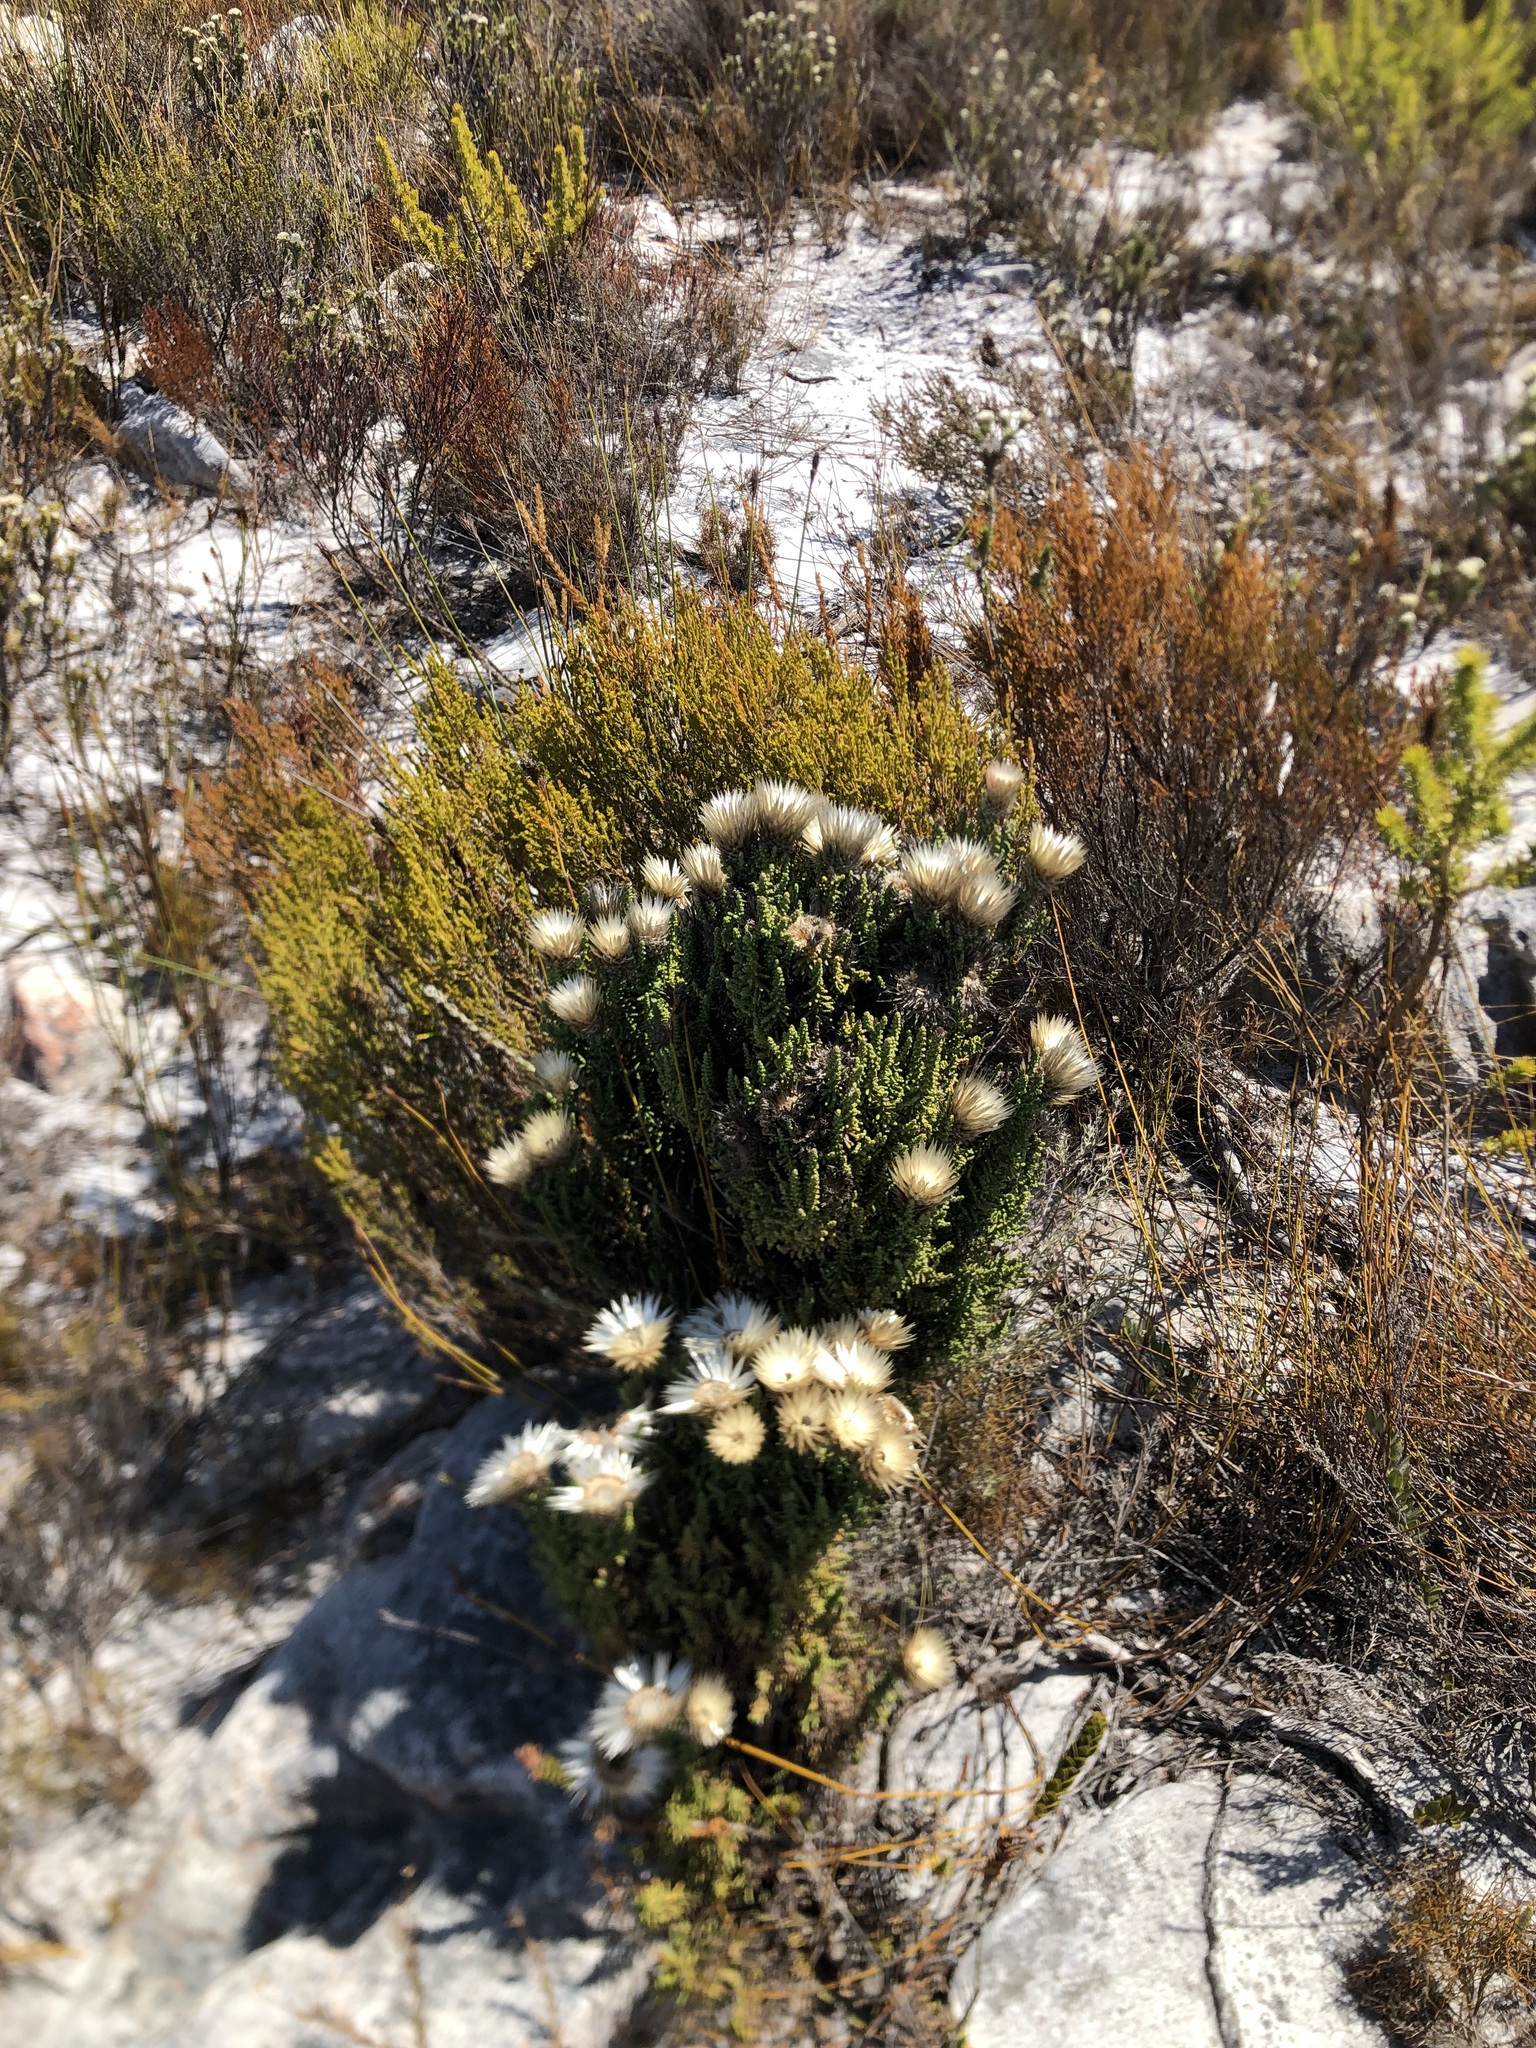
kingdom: Plantae
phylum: Tracheophyta
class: Magnoliopsida
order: Asterales
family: Asteraceae
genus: Phaenocoma
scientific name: Phaenocoma prolifera
